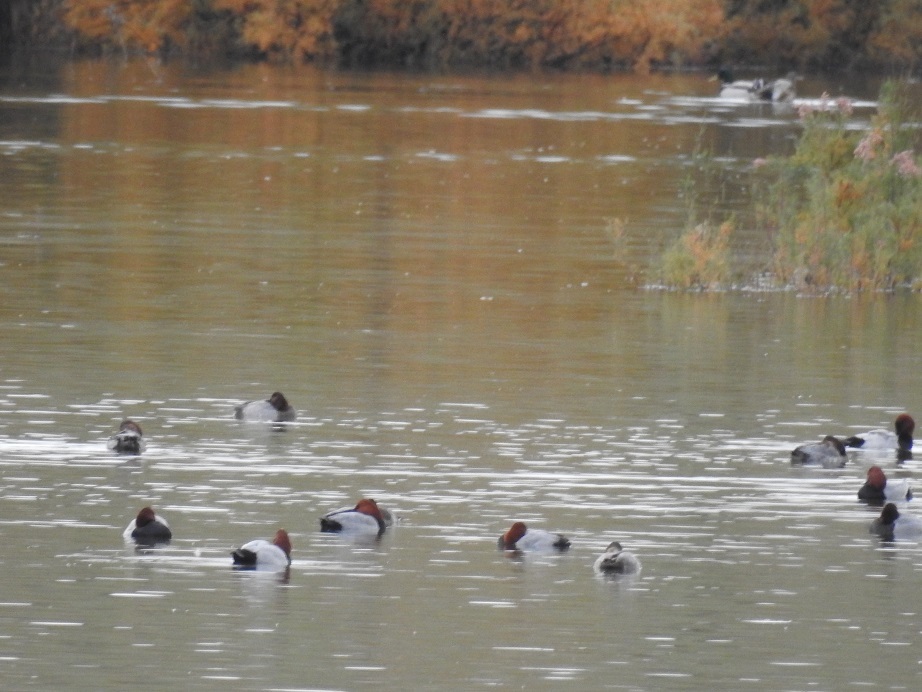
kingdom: Animalia
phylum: Chordata
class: Aves
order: Anseriformes
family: Anatidae
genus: Aythya
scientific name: Aythya ferina
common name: Common pochard
